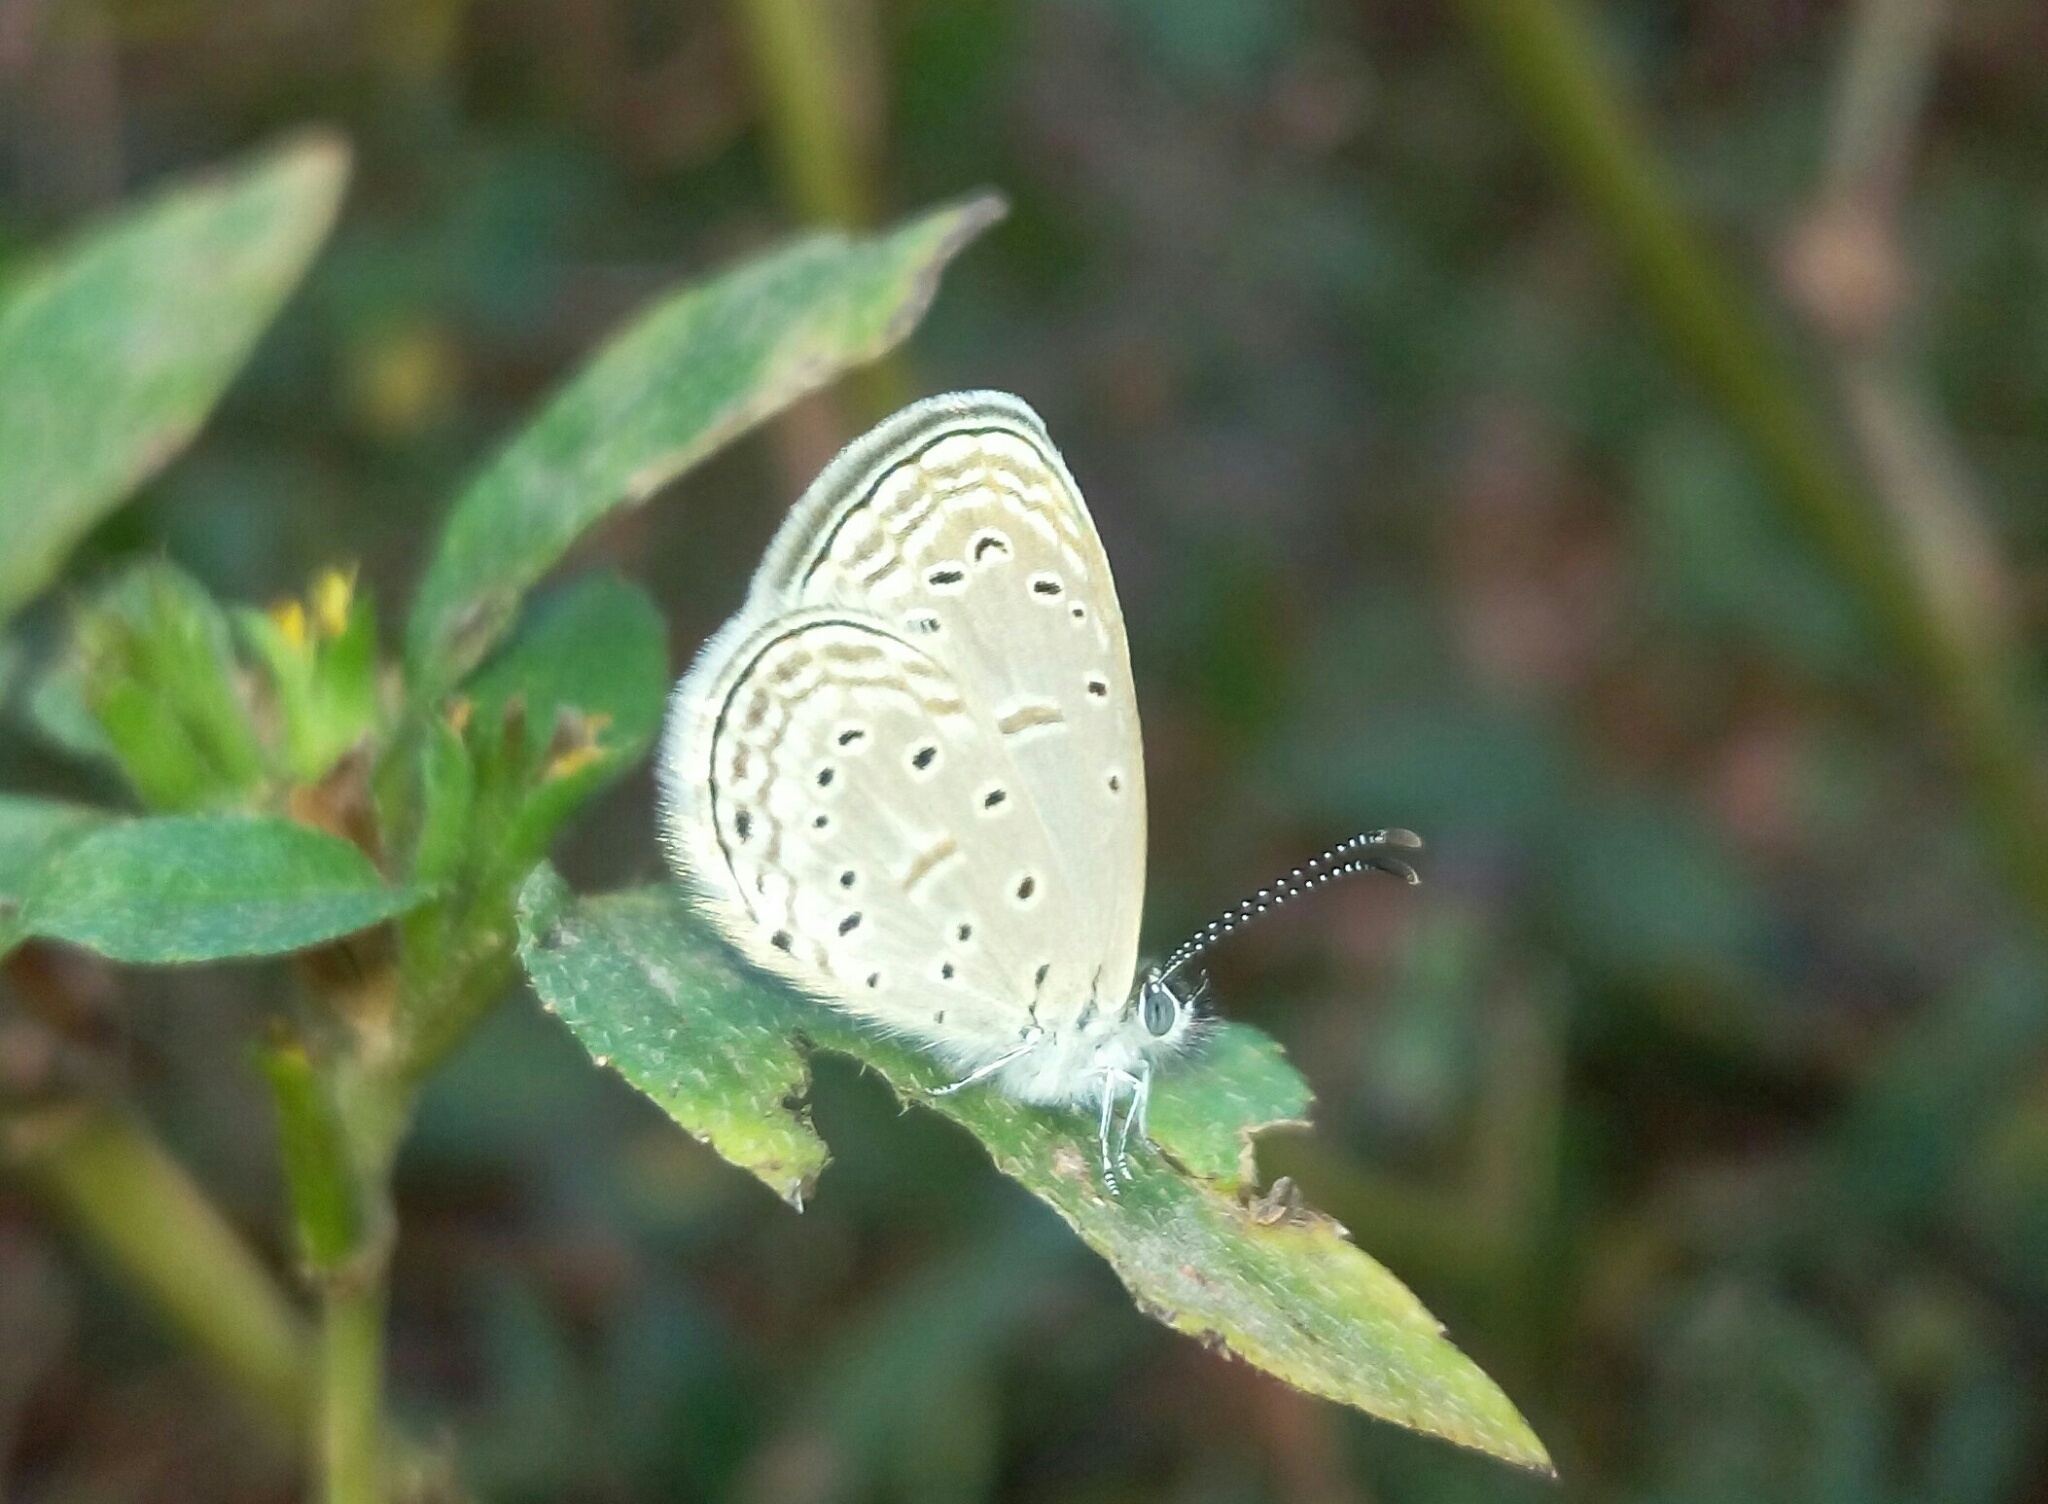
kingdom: Animalia
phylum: Arthropoda
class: Insecta
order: Lepidoptera
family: Lycaenidae
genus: Zizula
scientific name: Zizula hylax
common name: Gaika blue
